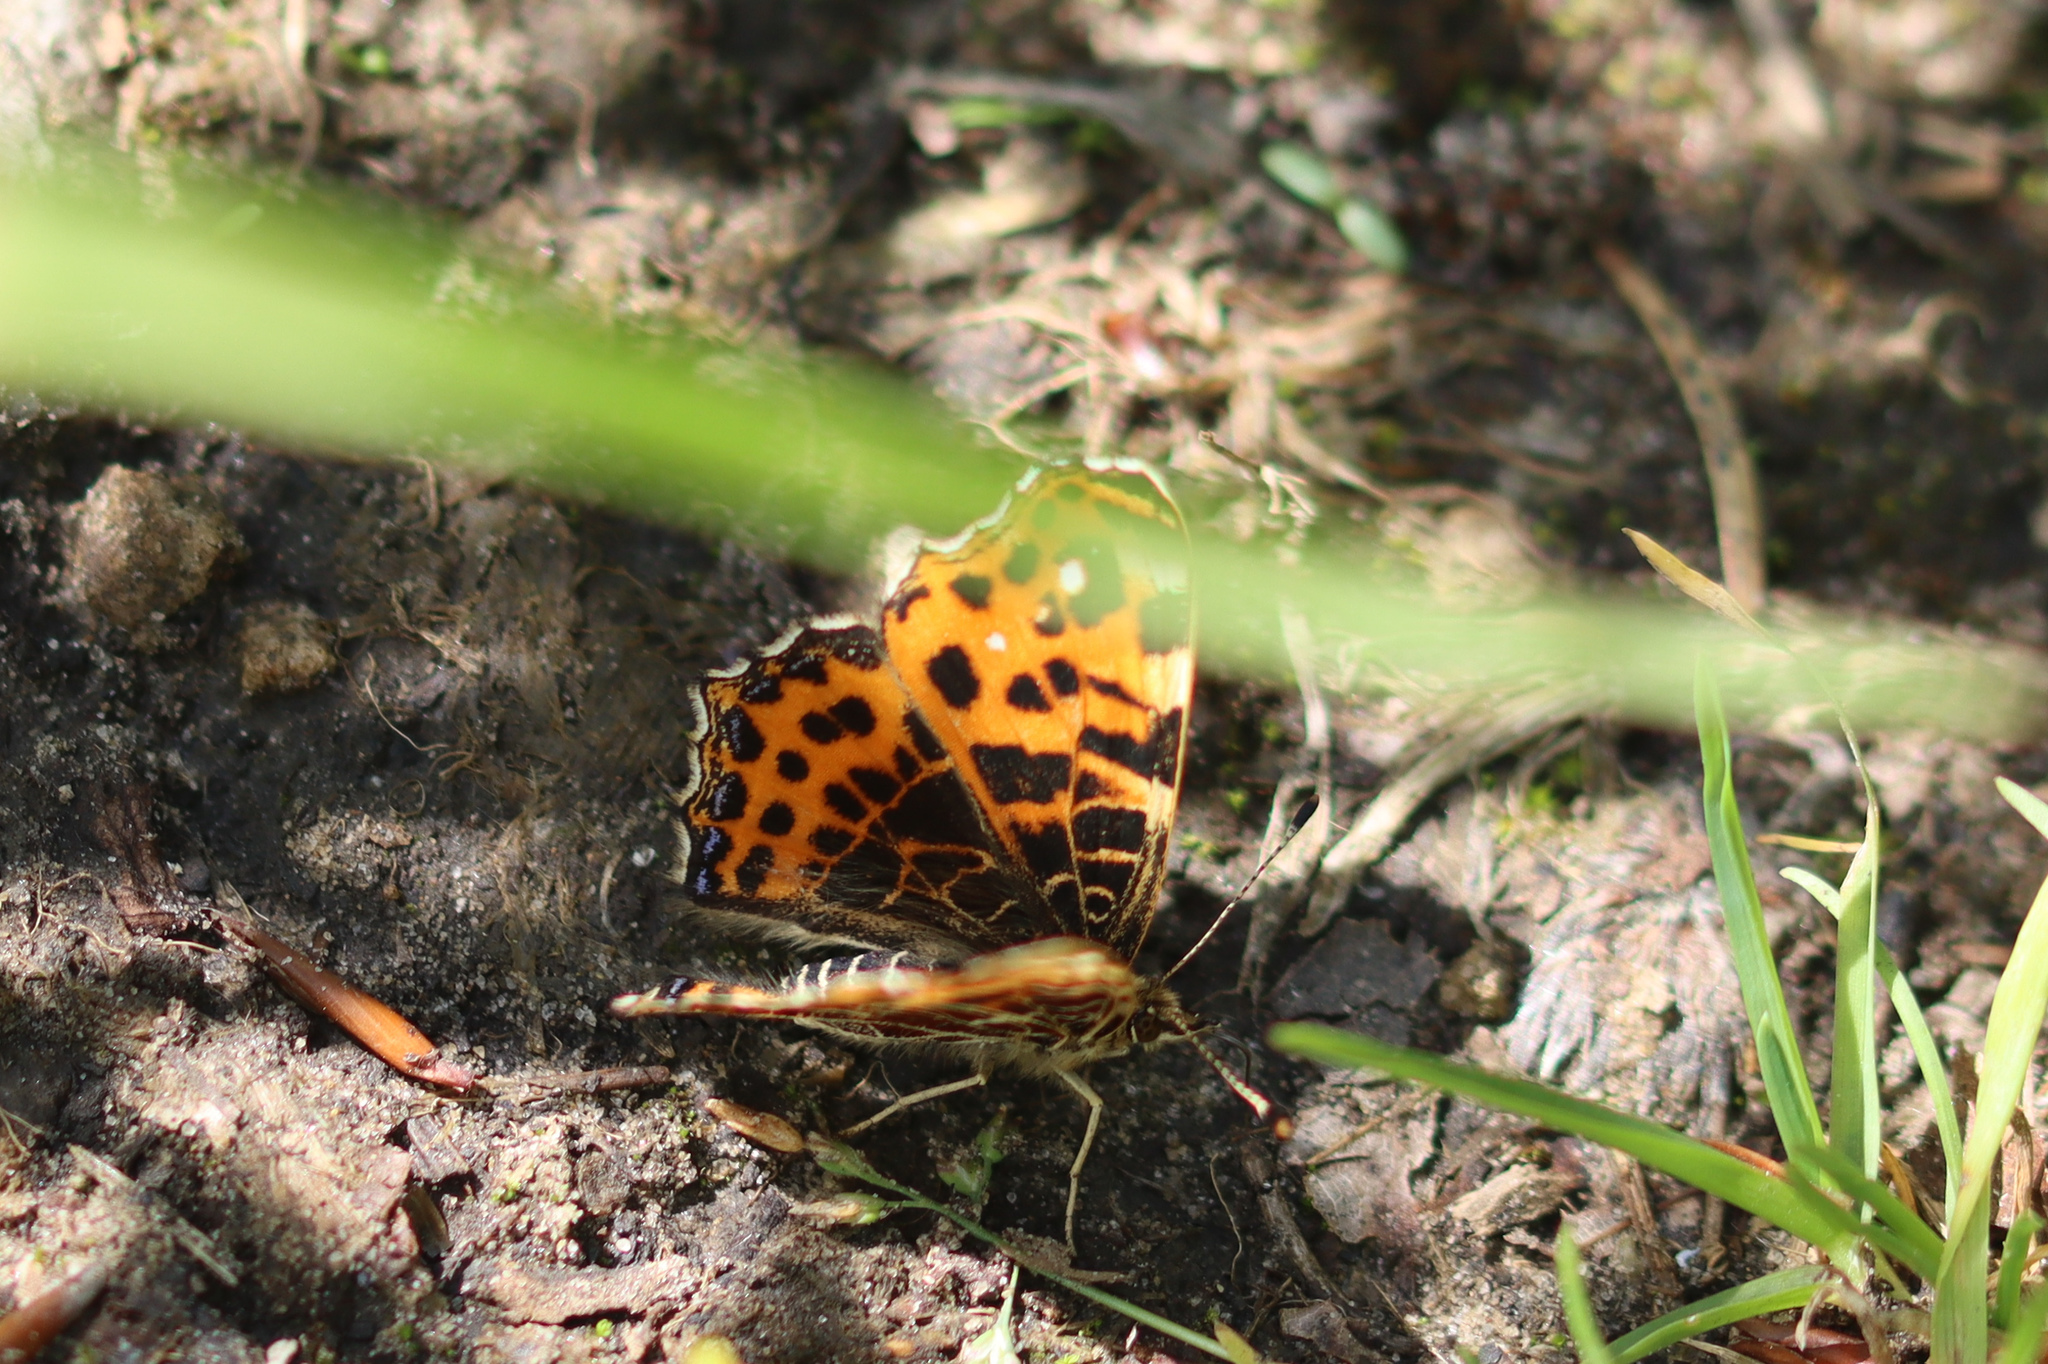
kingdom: Animalia
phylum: Arthropoda
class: Insecta
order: Lepidoptera
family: Nymphalidae
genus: Araschnia
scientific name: Araschnia levana
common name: Map butterfly
